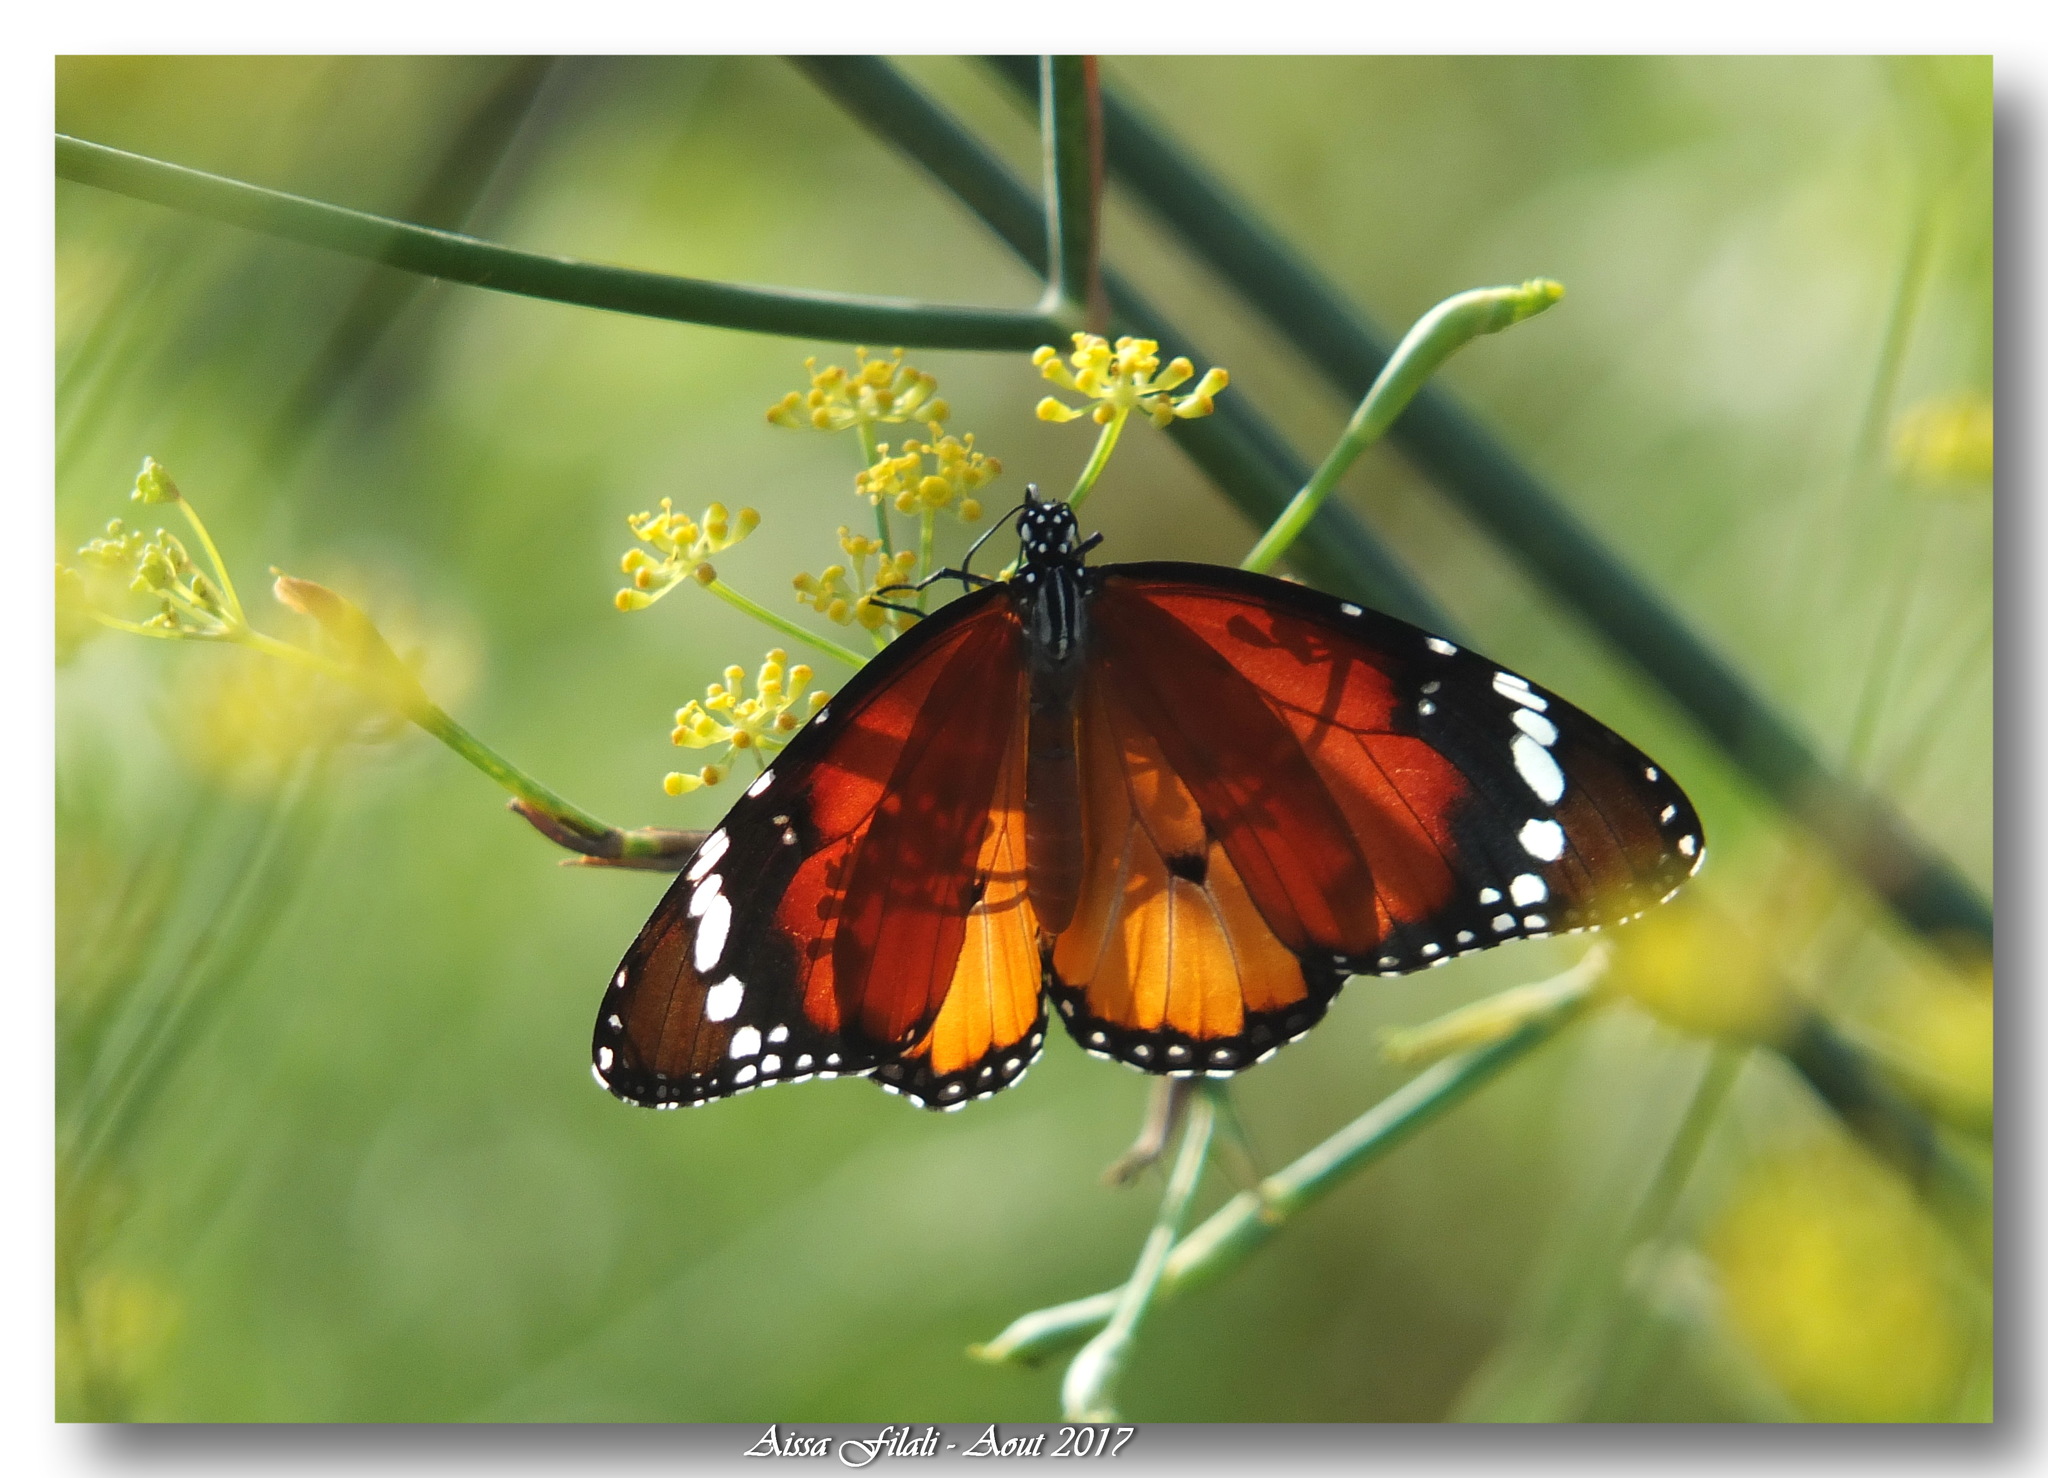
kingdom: Animalia
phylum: Arthropoda
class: Insecta
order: Lepidoptera
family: Nymphalidae
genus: Danaus
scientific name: Danaus chrysippus
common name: Plain tiger
